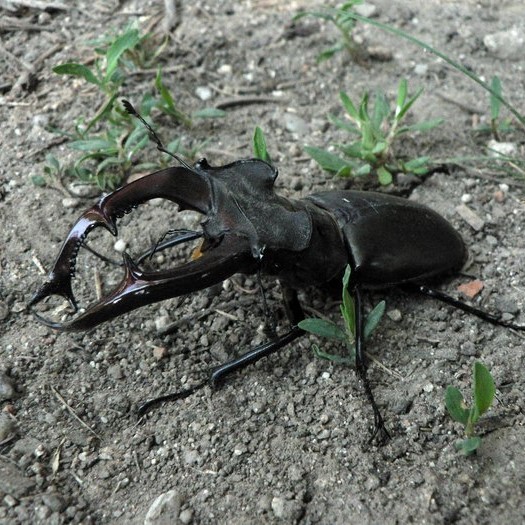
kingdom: Animalia
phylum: Arthropoda
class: Insecta
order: Coleoptera
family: Lucanidae
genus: Lucanus
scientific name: Lucanus cervus
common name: Stag beetle
